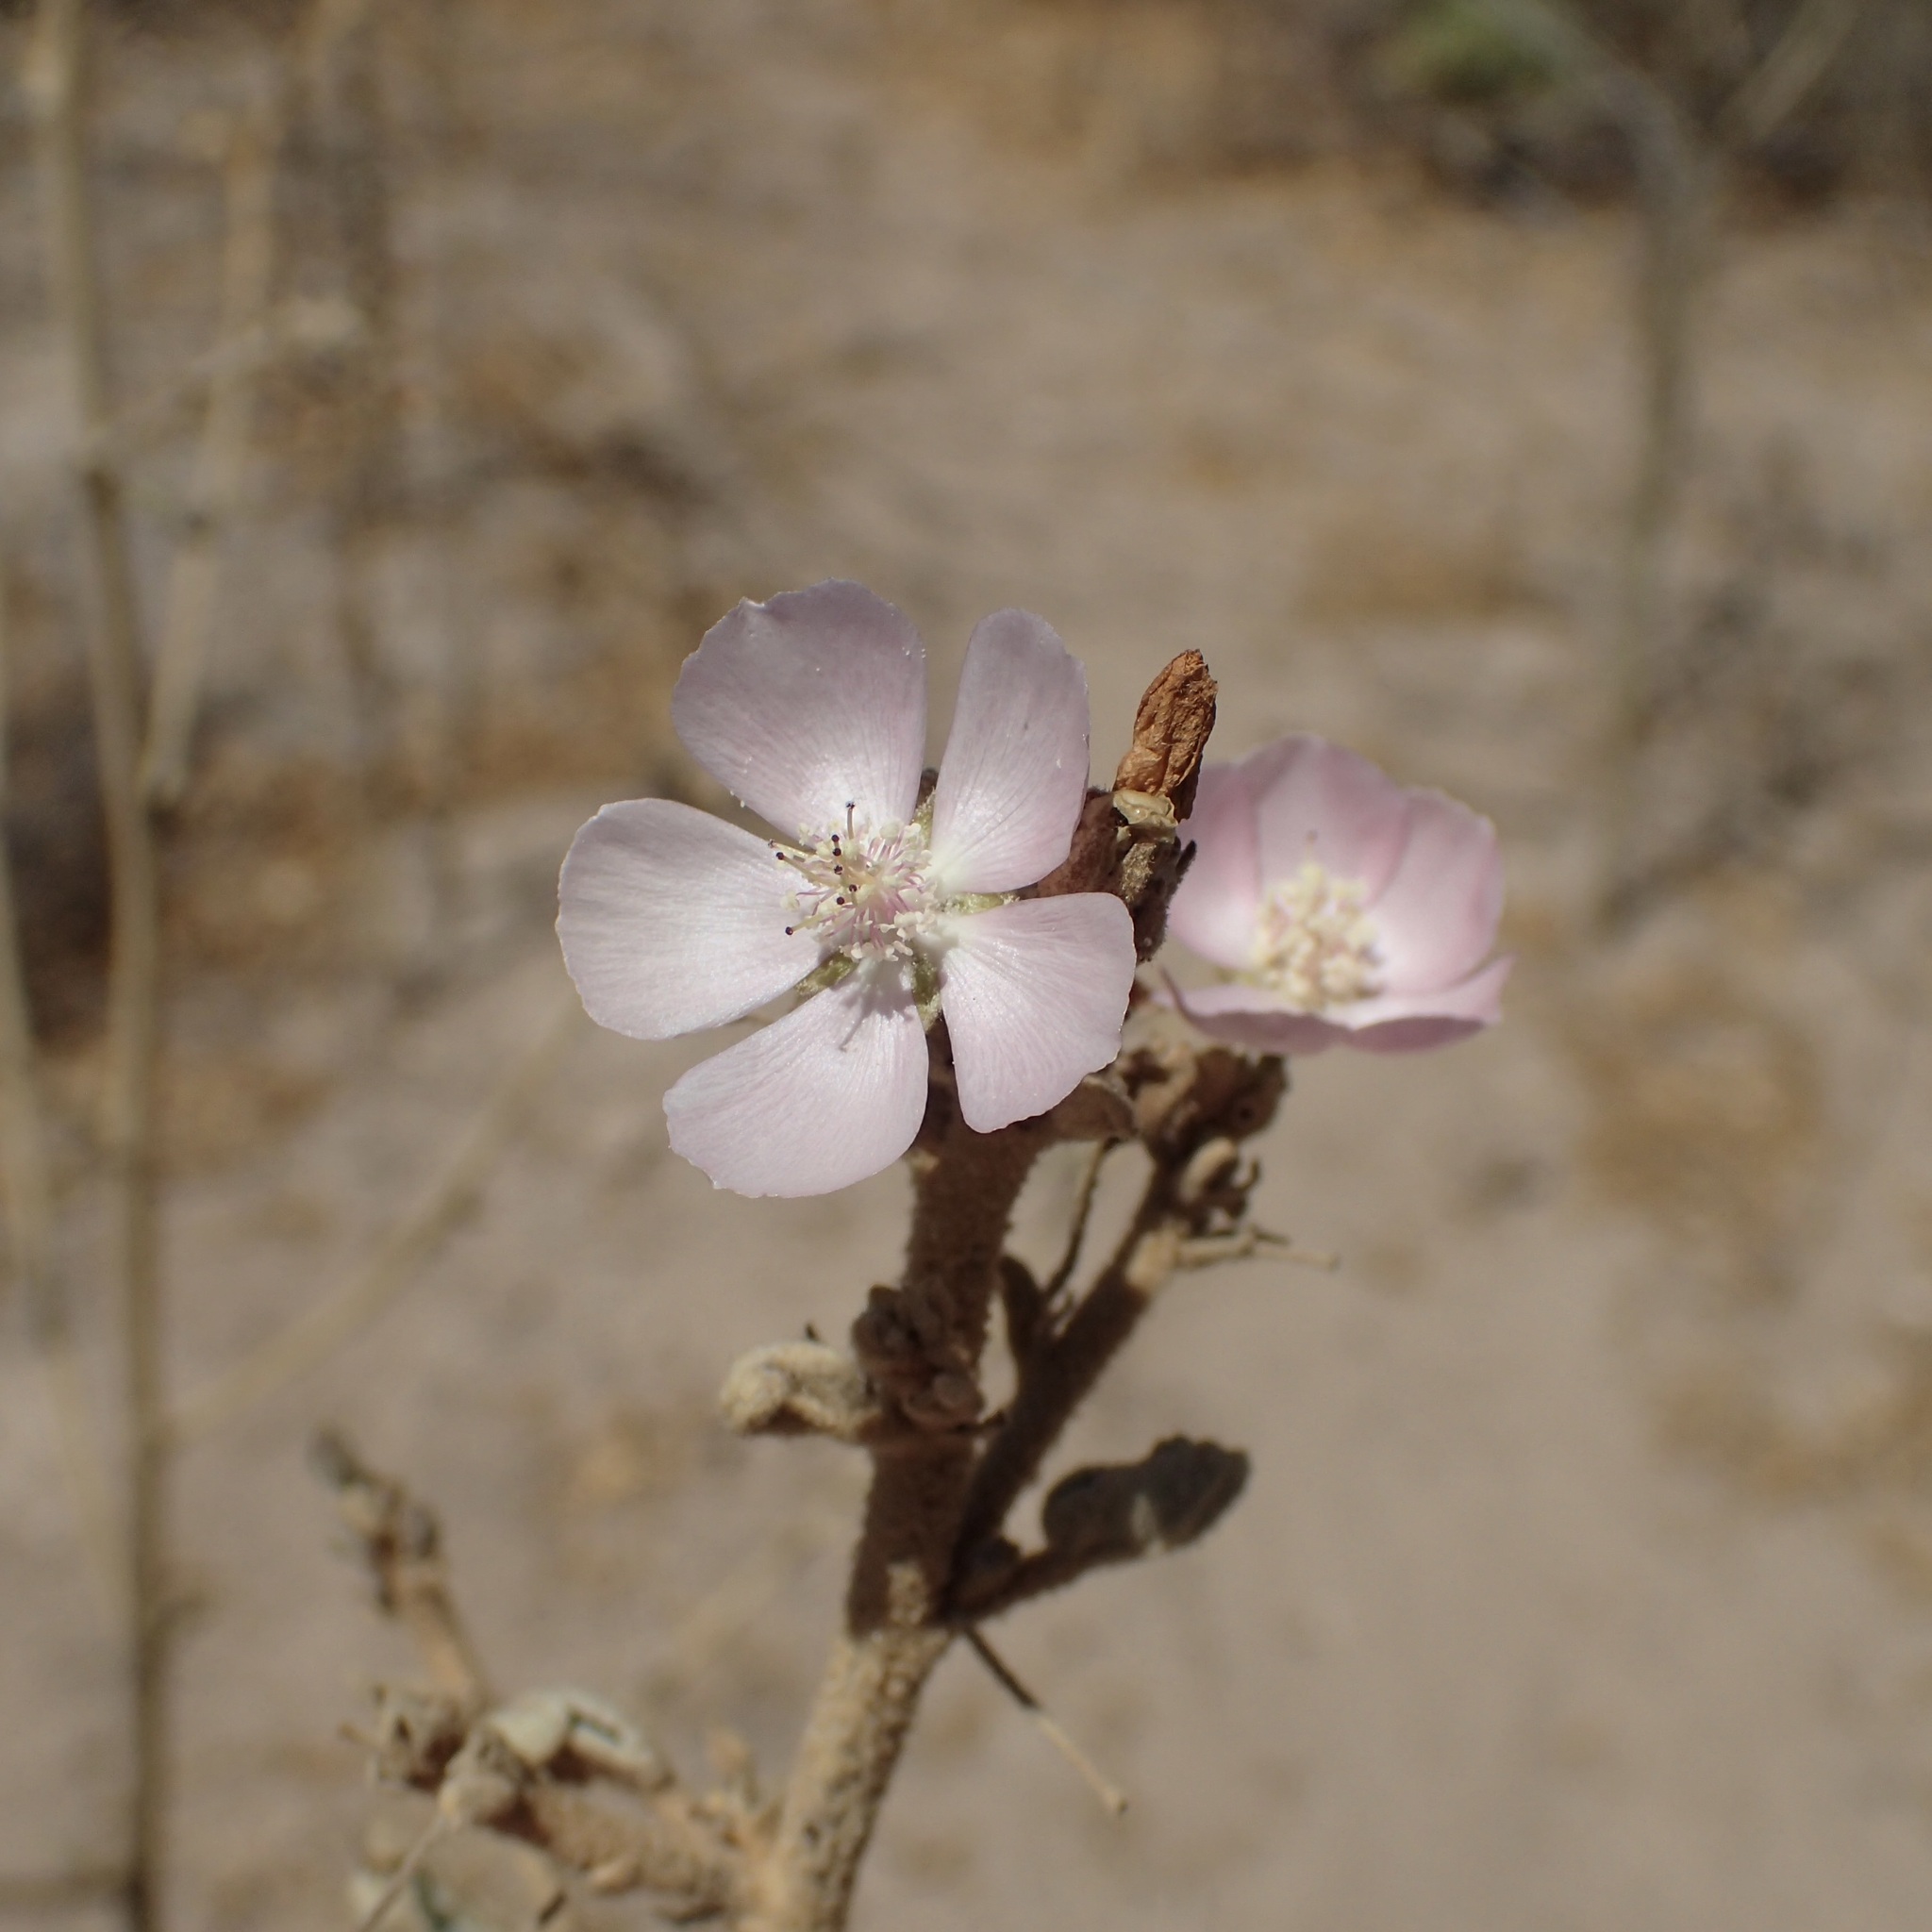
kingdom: Plantae
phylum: Tracheophyta
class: Magnoliopsida
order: Malvales
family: Malvaceae
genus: Horsfordia
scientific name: Horsfordia alata
